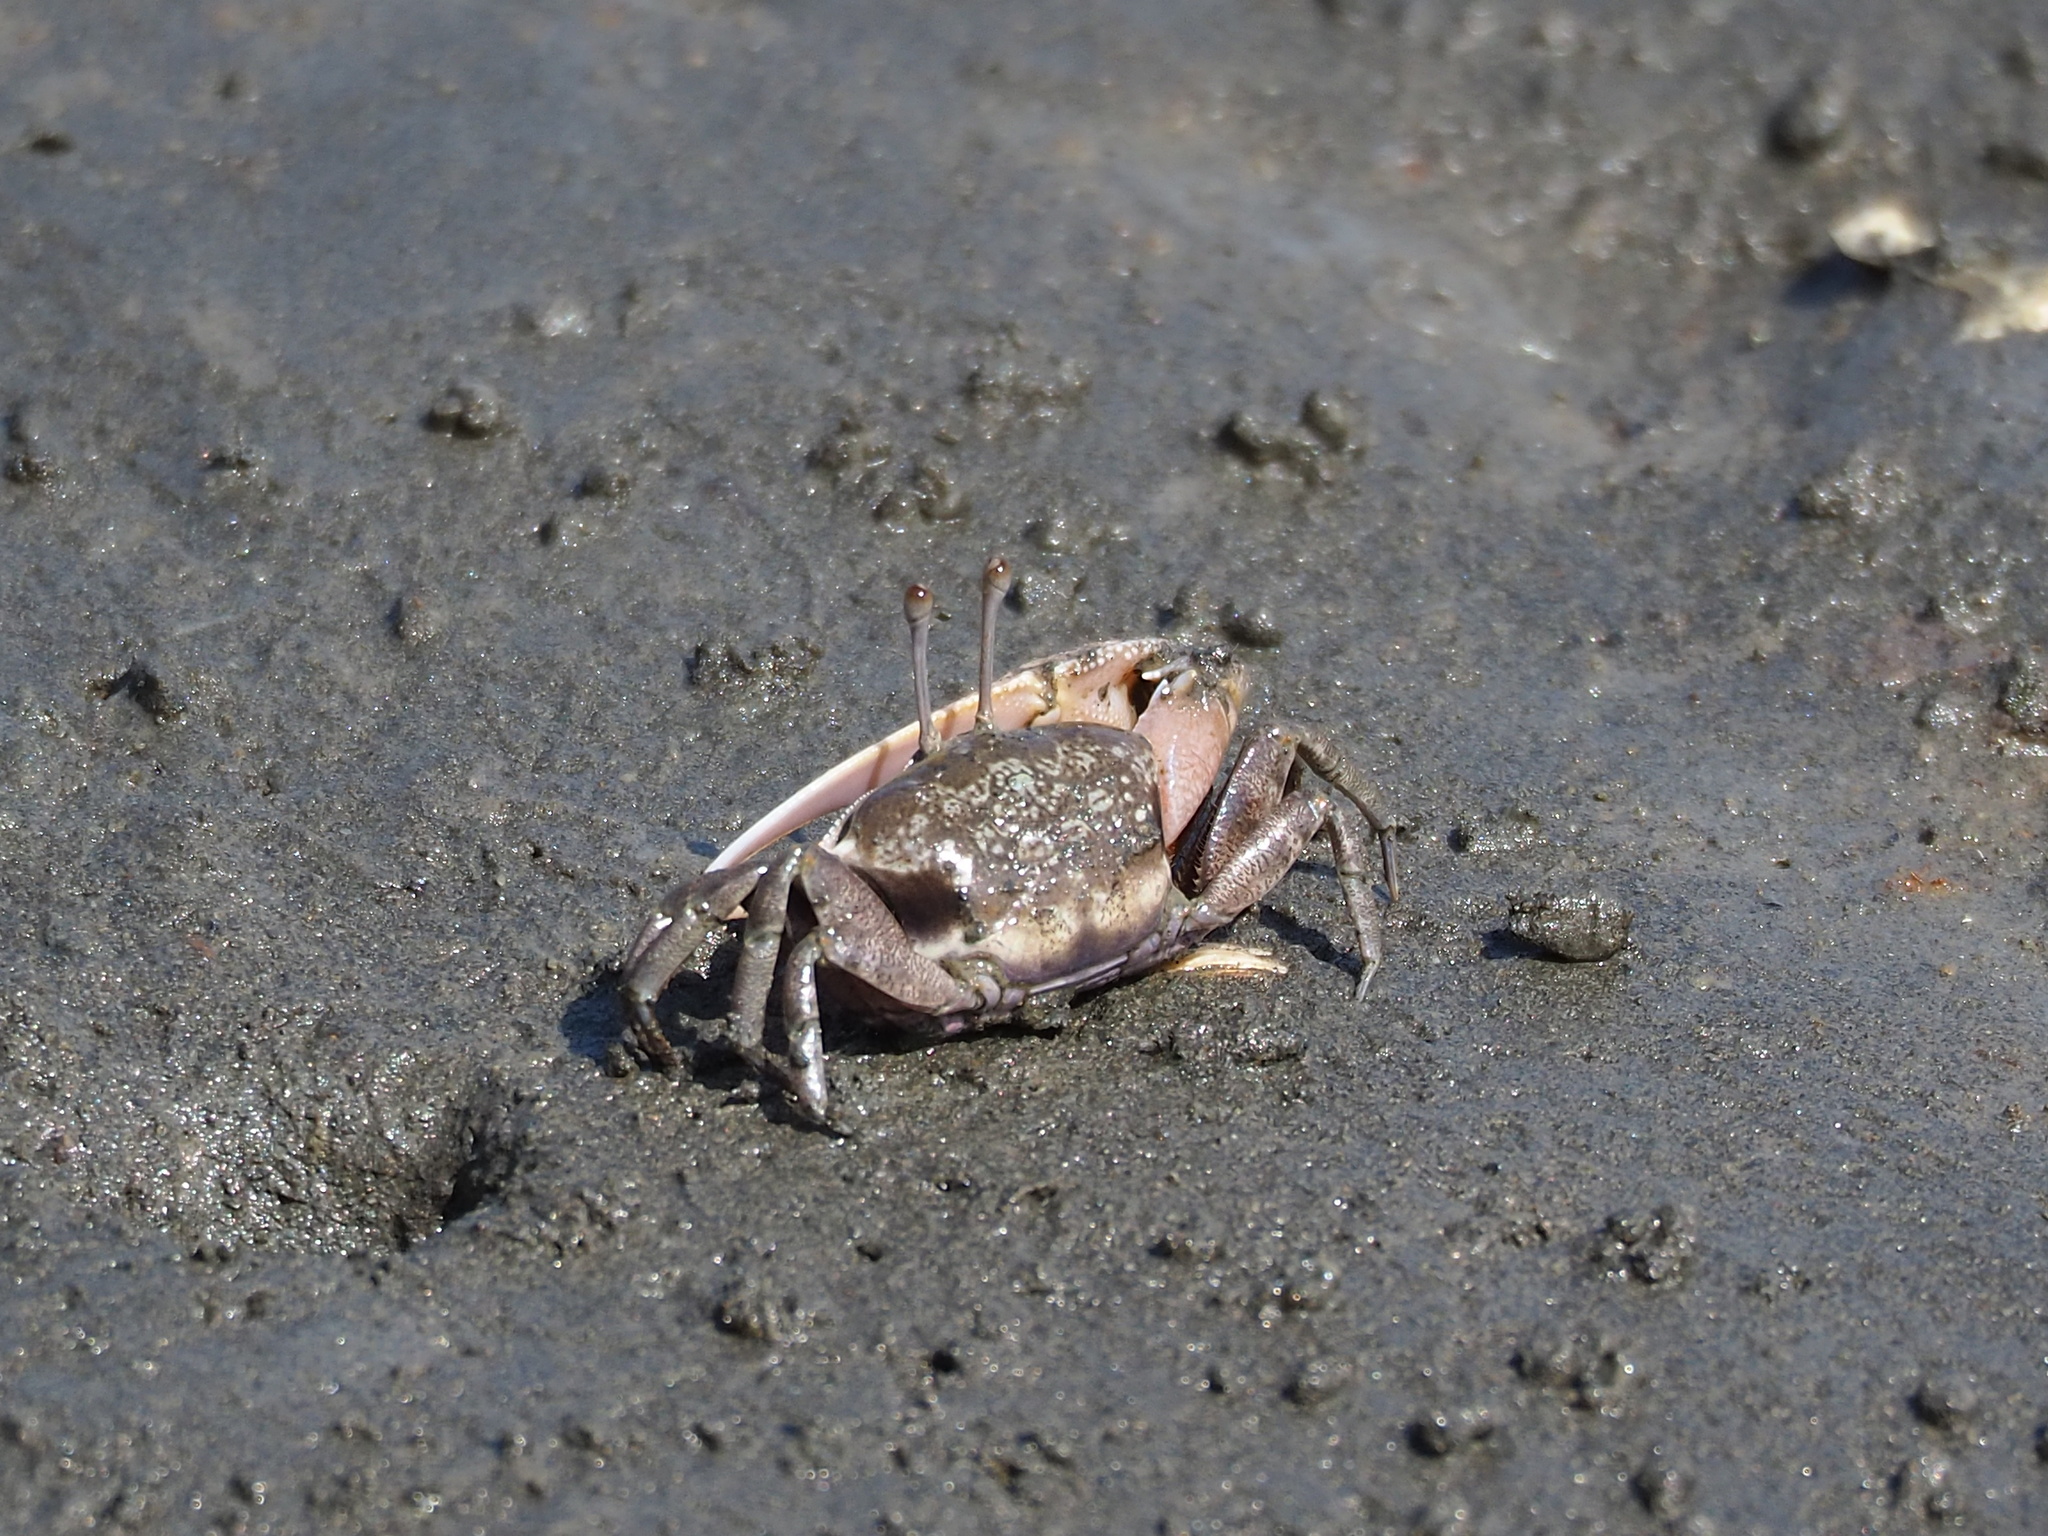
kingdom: Animalia
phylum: Arthropoda
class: Malacostraca
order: Decapoda
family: Ocypodidae
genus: Gelasimus
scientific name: Gelasimus borealis
